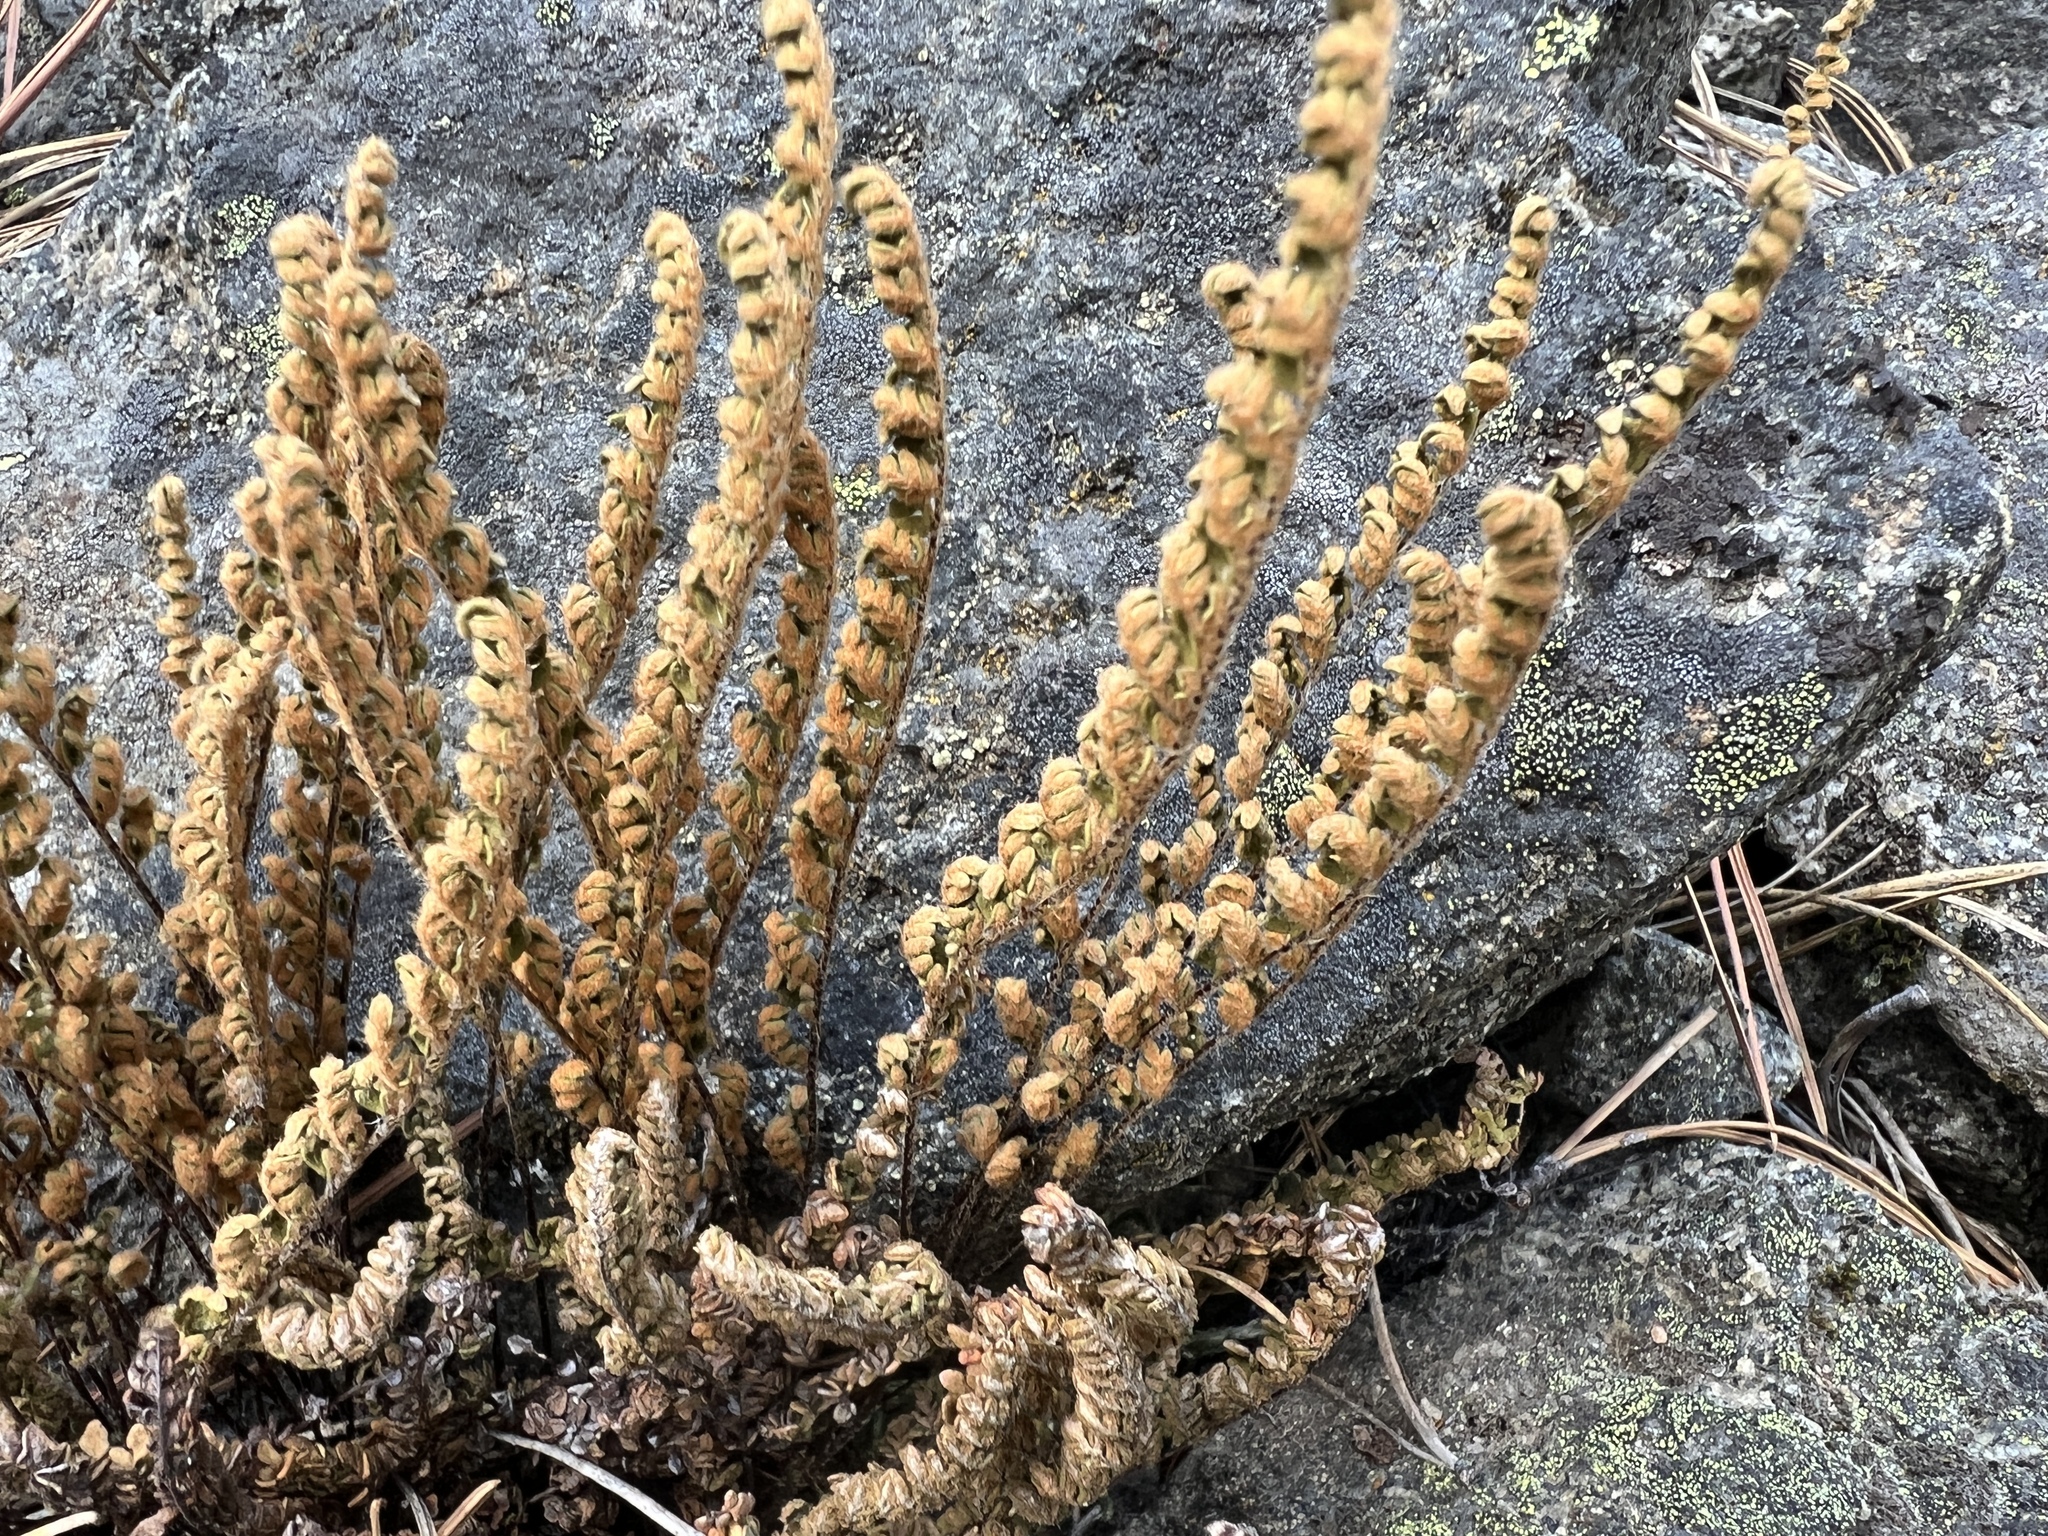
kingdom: Plantae
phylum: Tracheophyta
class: Polypodiopsida
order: Polypodiales
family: Pteridaceae
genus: Myriopteris
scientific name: Myriopteris gracillima
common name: Lace fern
